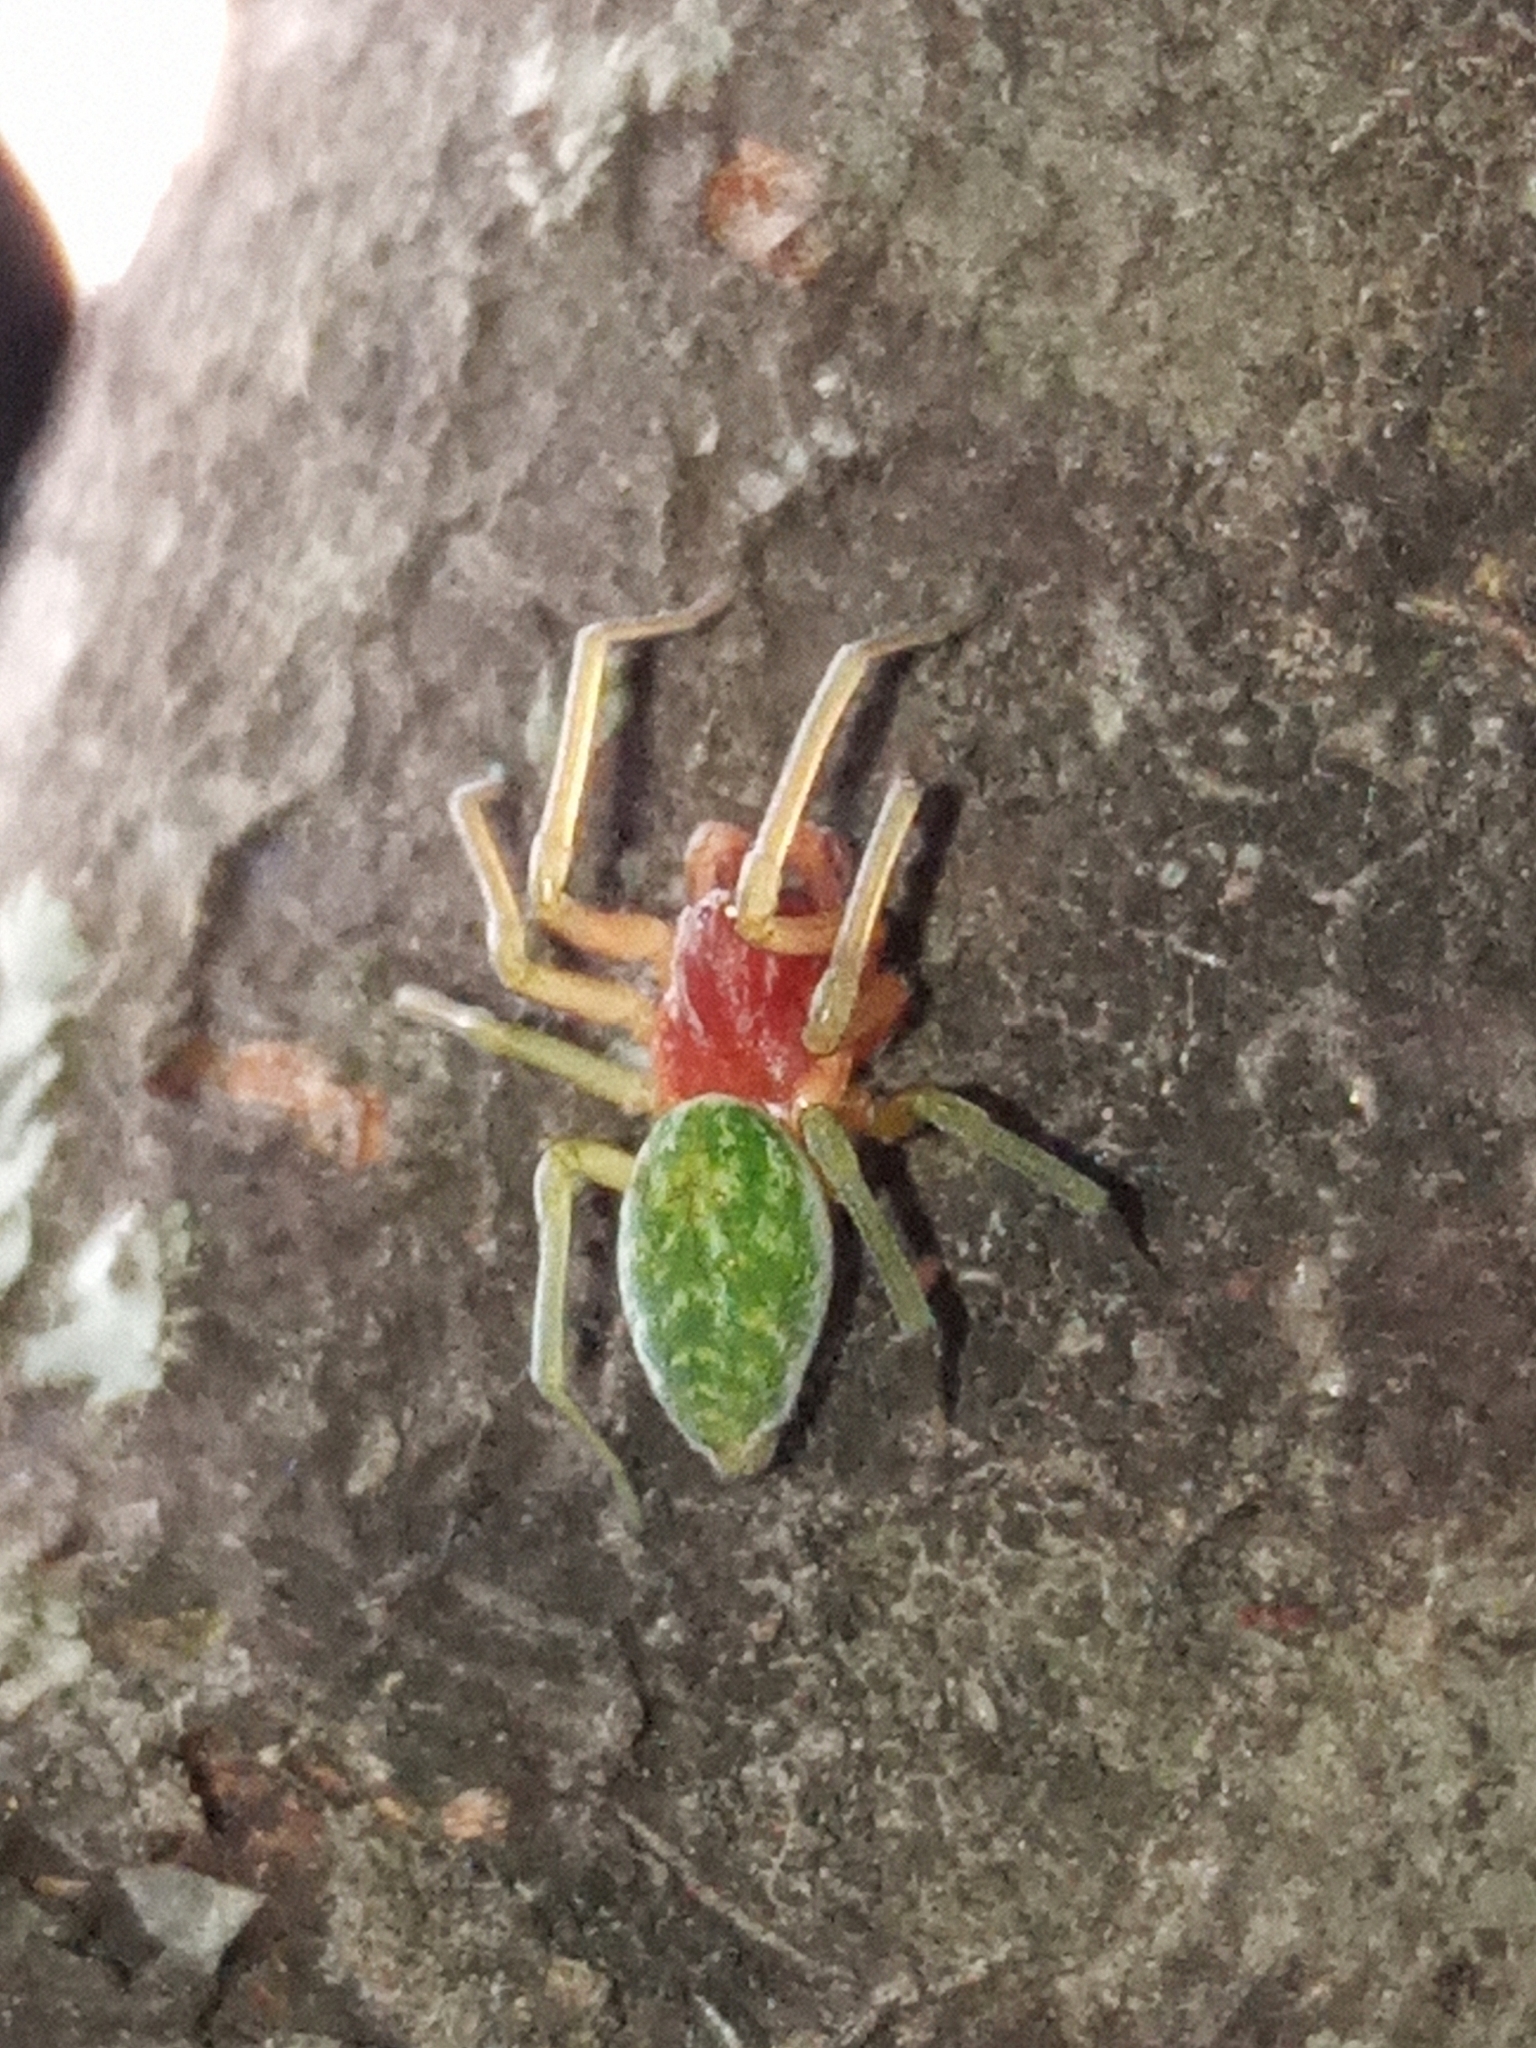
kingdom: Animalia
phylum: Arthropoda
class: Arachnida
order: Araneae
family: Dictynidae
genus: Nigma
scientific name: Nigma walckenaeri
